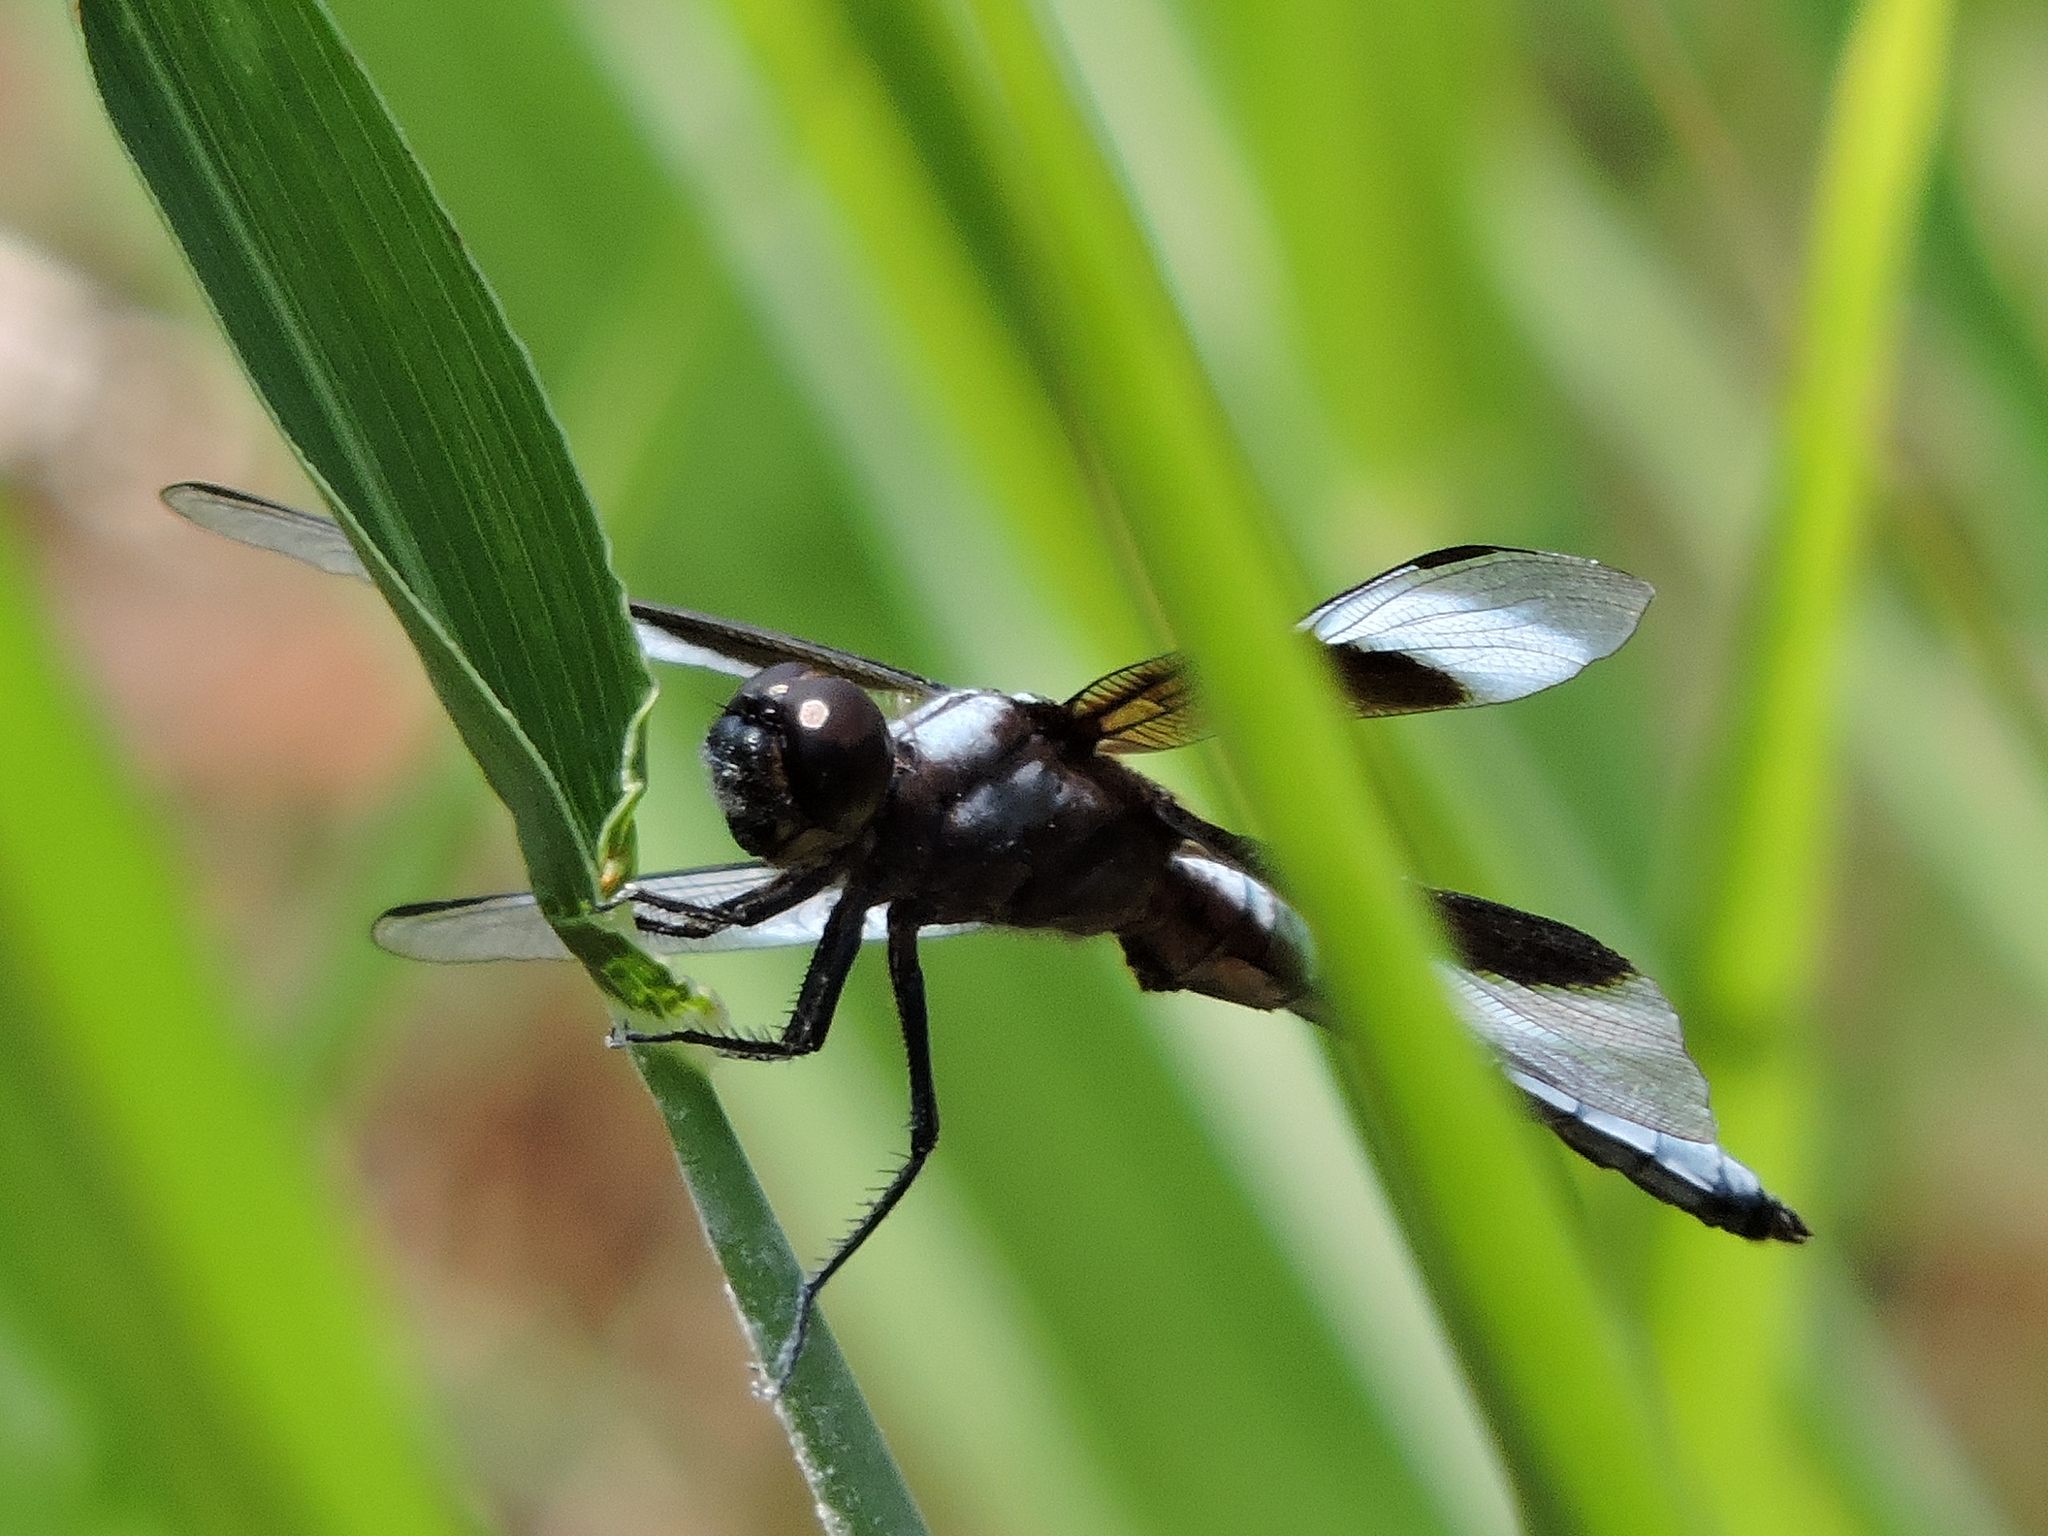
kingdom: Animalia
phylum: Arthropoda
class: Insecta
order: Odonata
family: Libellulidae
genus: Libellula
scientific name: Libellula luctuosa
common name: Widow skimmer
